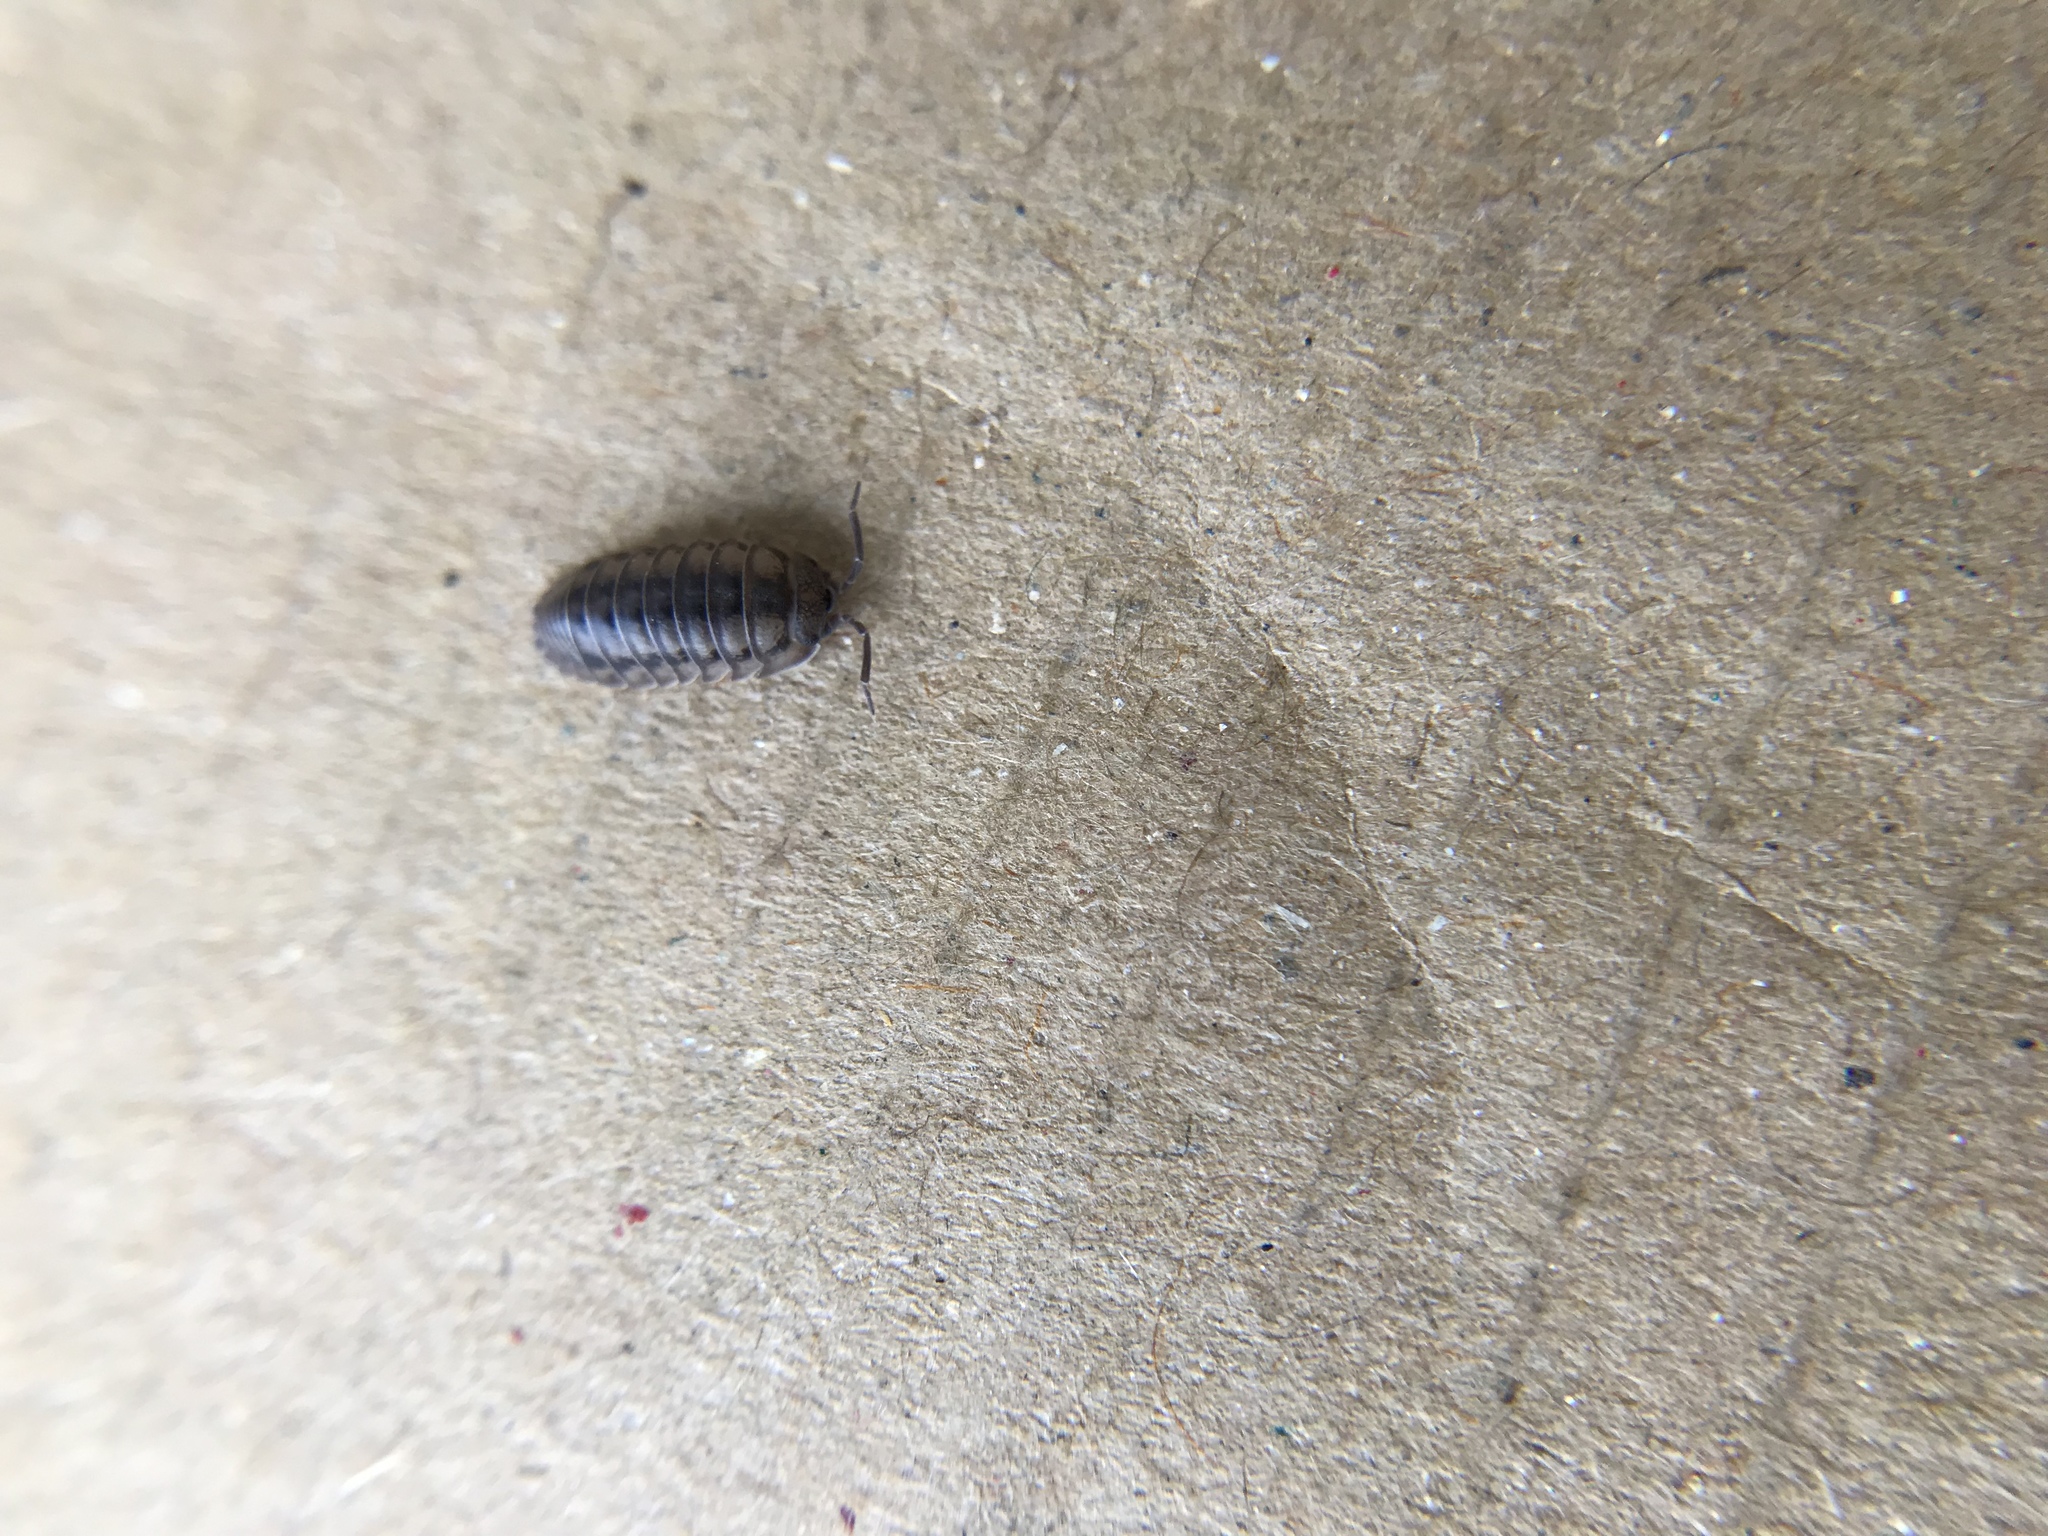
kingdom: Animalia
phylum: Arthropoda
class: Malacostraca
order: Isopoda
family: Armadillidiidae
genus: Armadillidium
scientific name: Armadillidium nasatum
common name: Isopod
